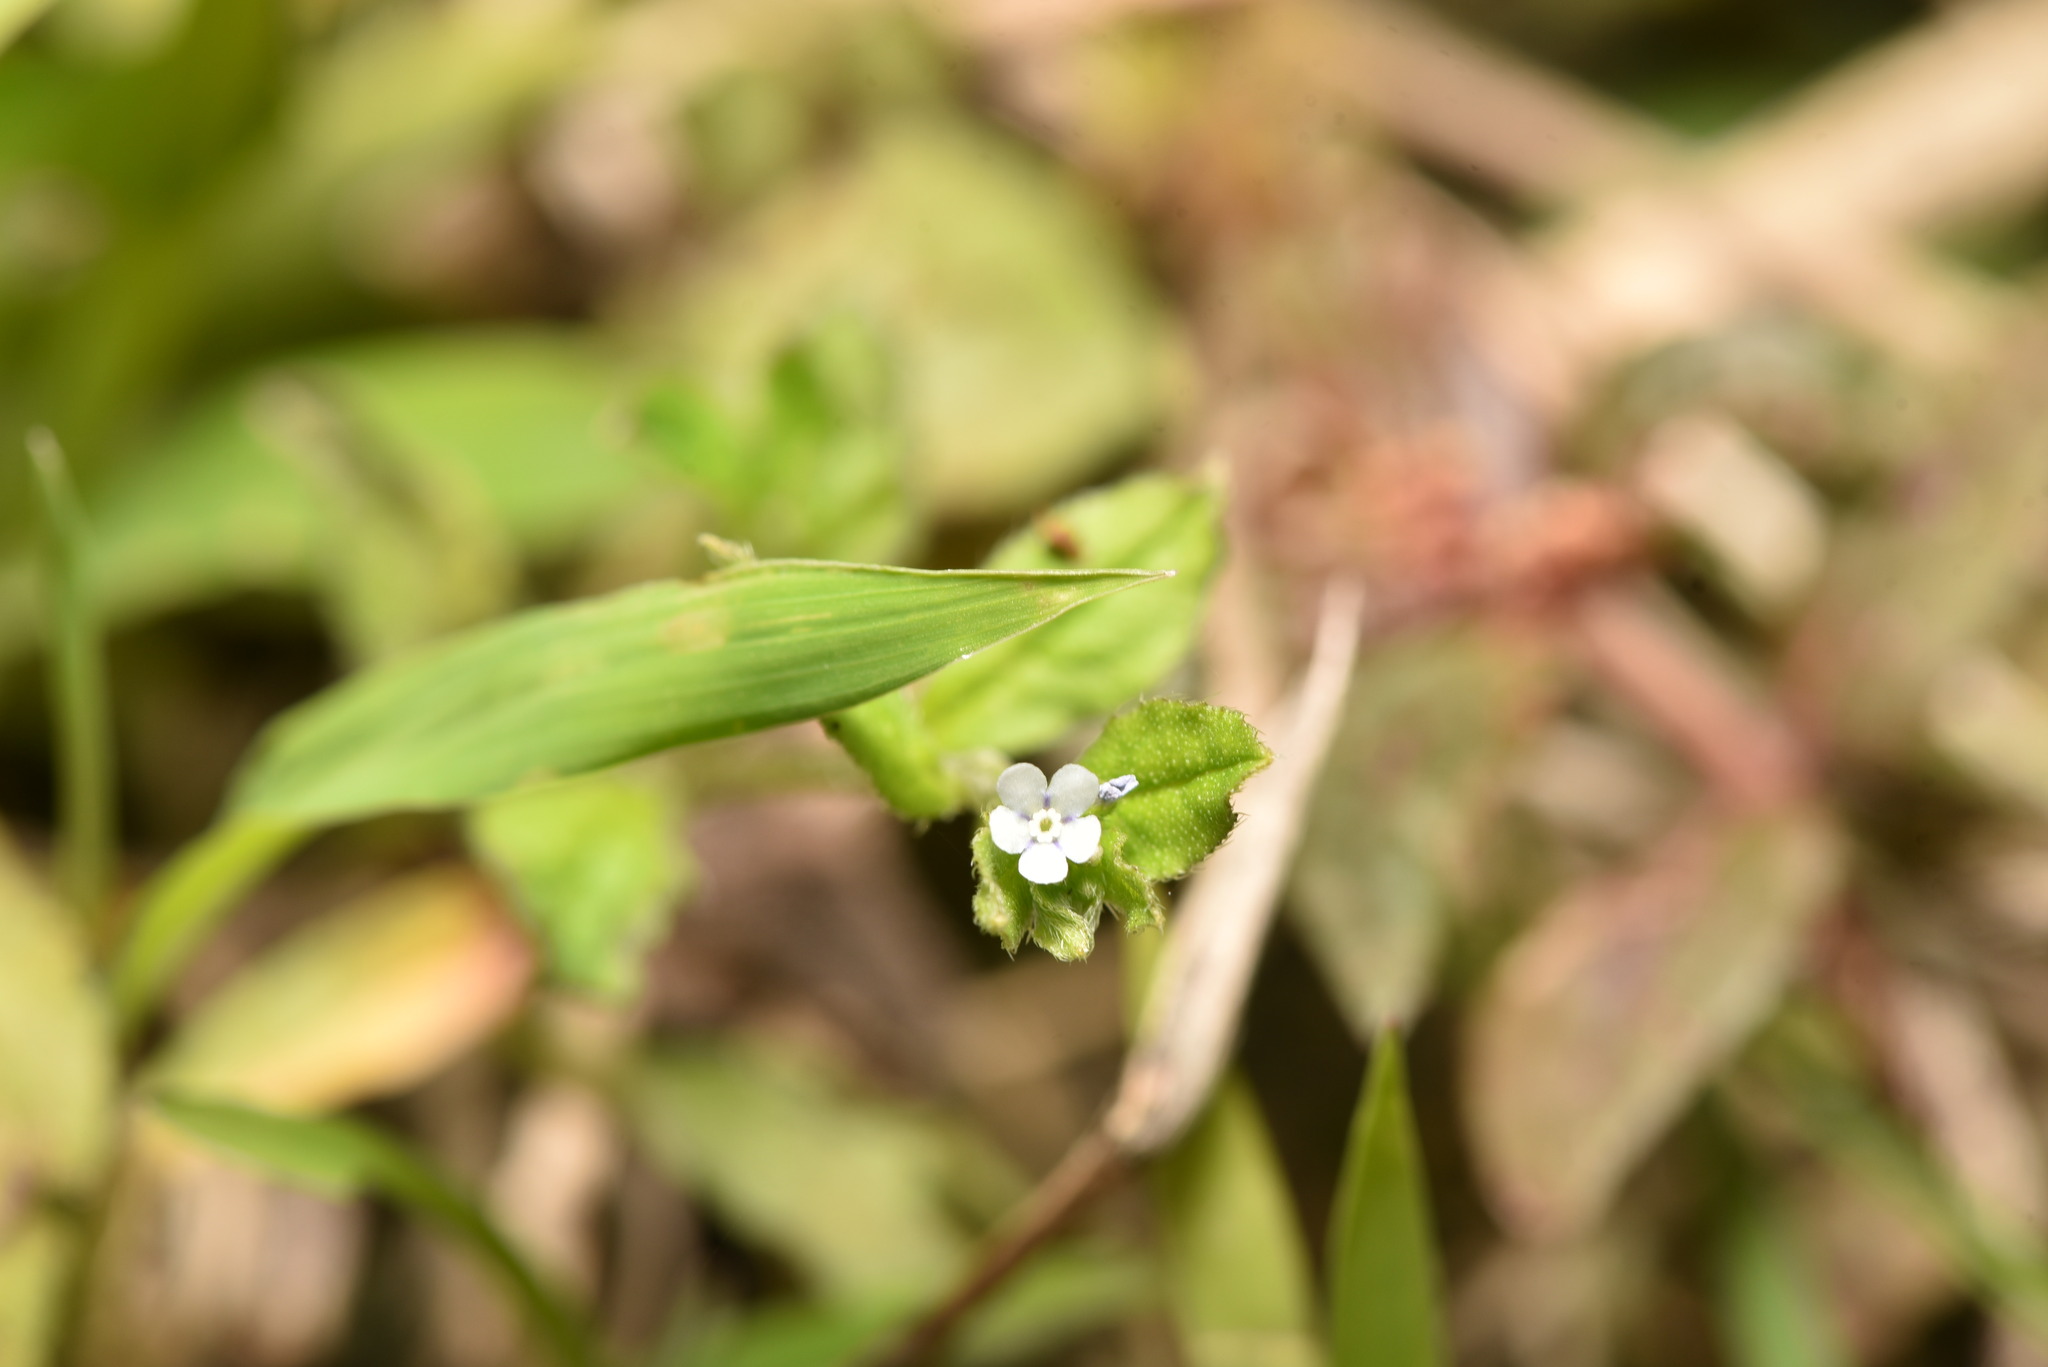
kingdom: Plantae
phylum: Tracheophyta
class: Magnoliopsida
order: Boraginales
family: Boraginaceae
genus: Bothriospermum
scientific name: Bothriospermum zeylanicum
